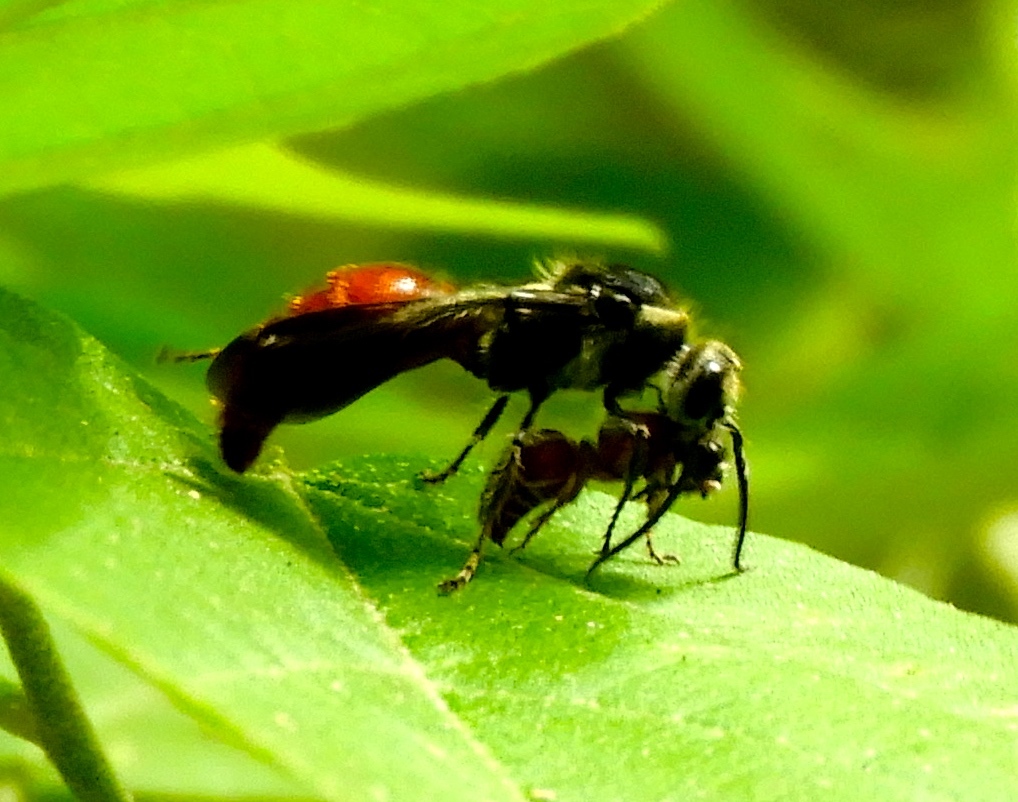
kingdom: Animalia
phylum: Arthropoda
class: Insecta
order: Hymenoptera
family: Mutillidae
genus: Timulla
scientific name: Timulla
